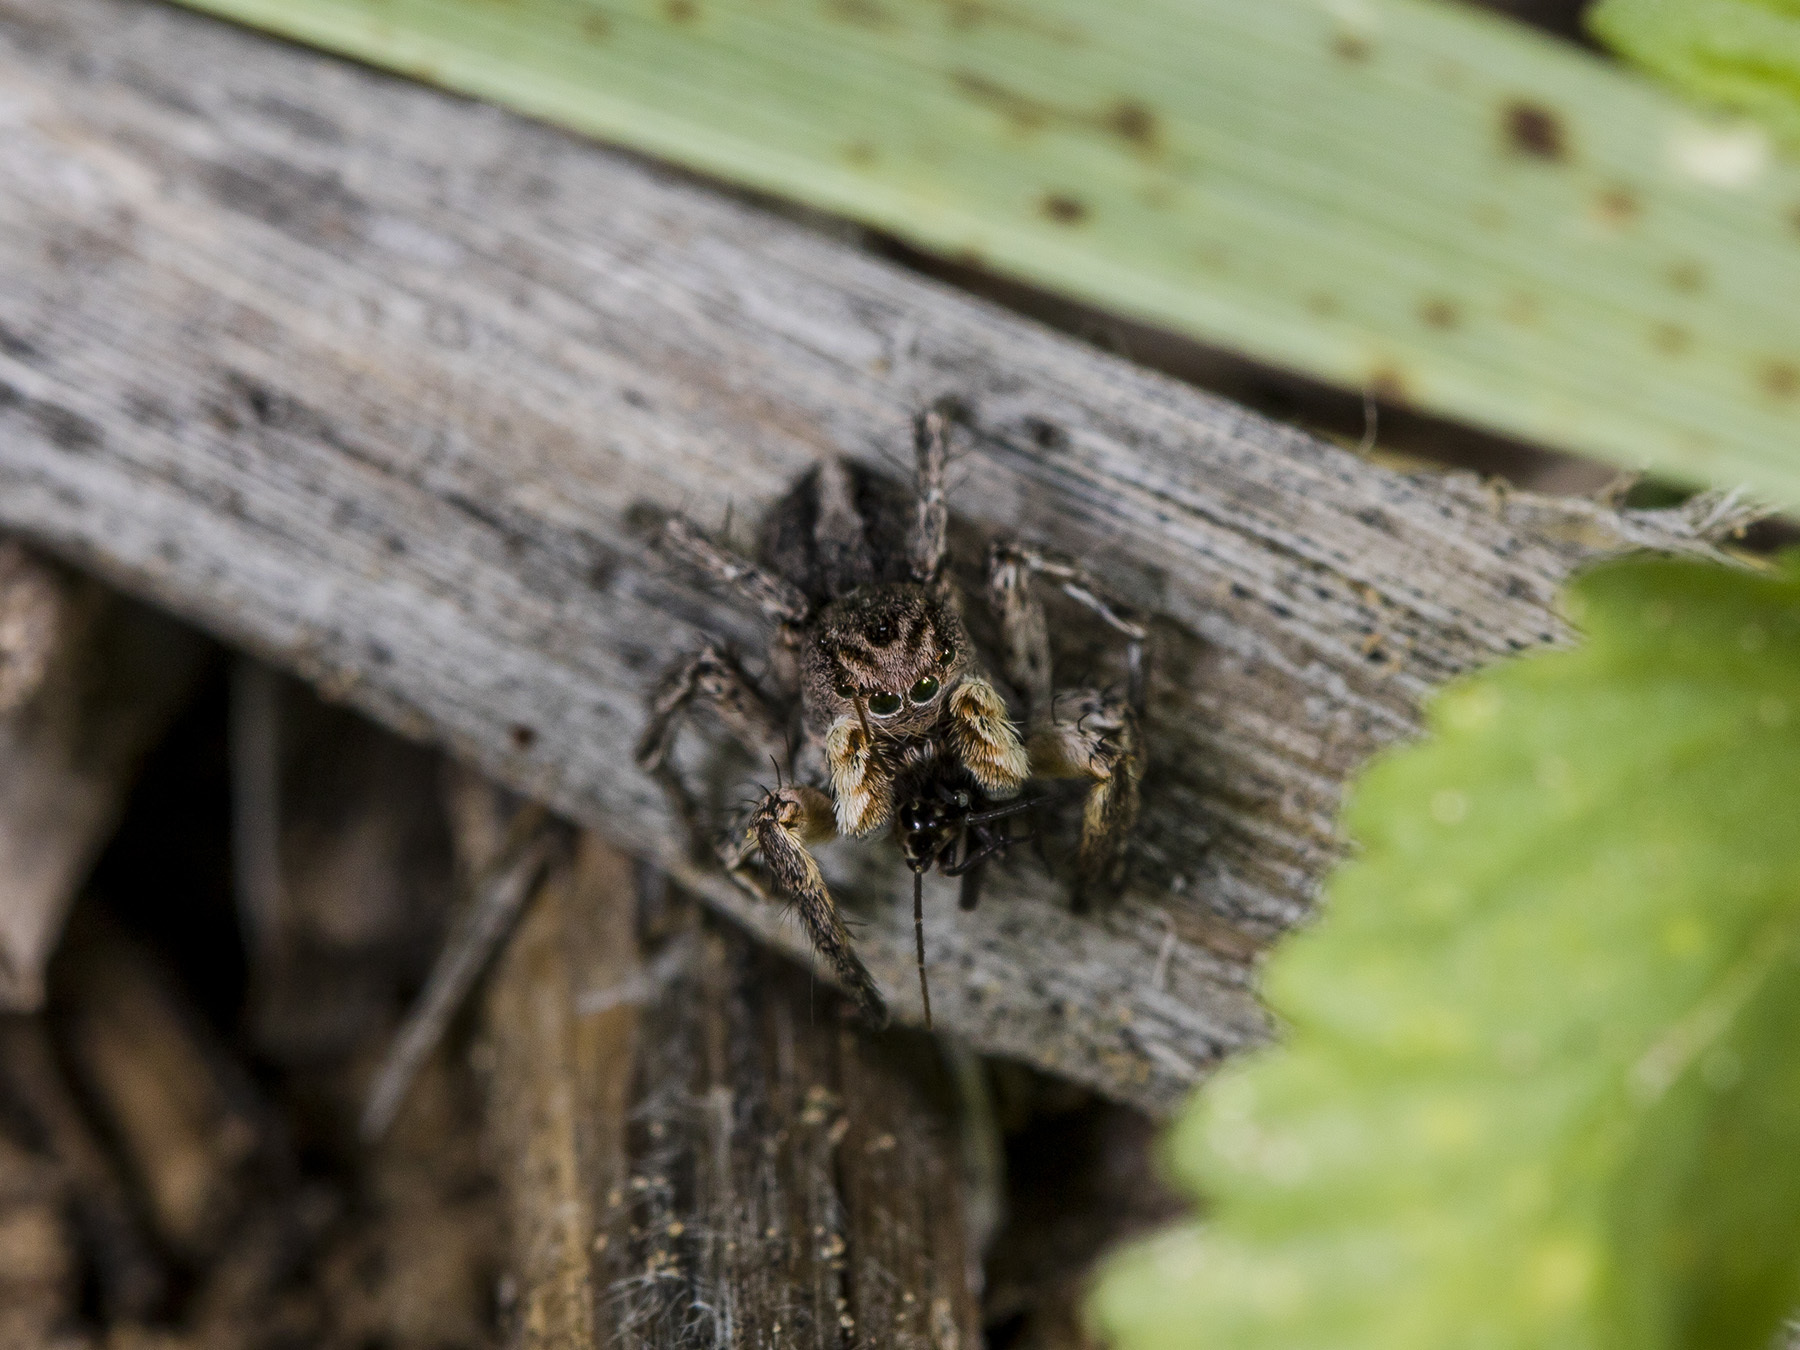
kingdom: Animalia
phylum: Arthropoda
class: Arachnida
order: Araneae
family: Salticidae
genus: Aelurillus
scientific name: Aelurillus v-insignitus
